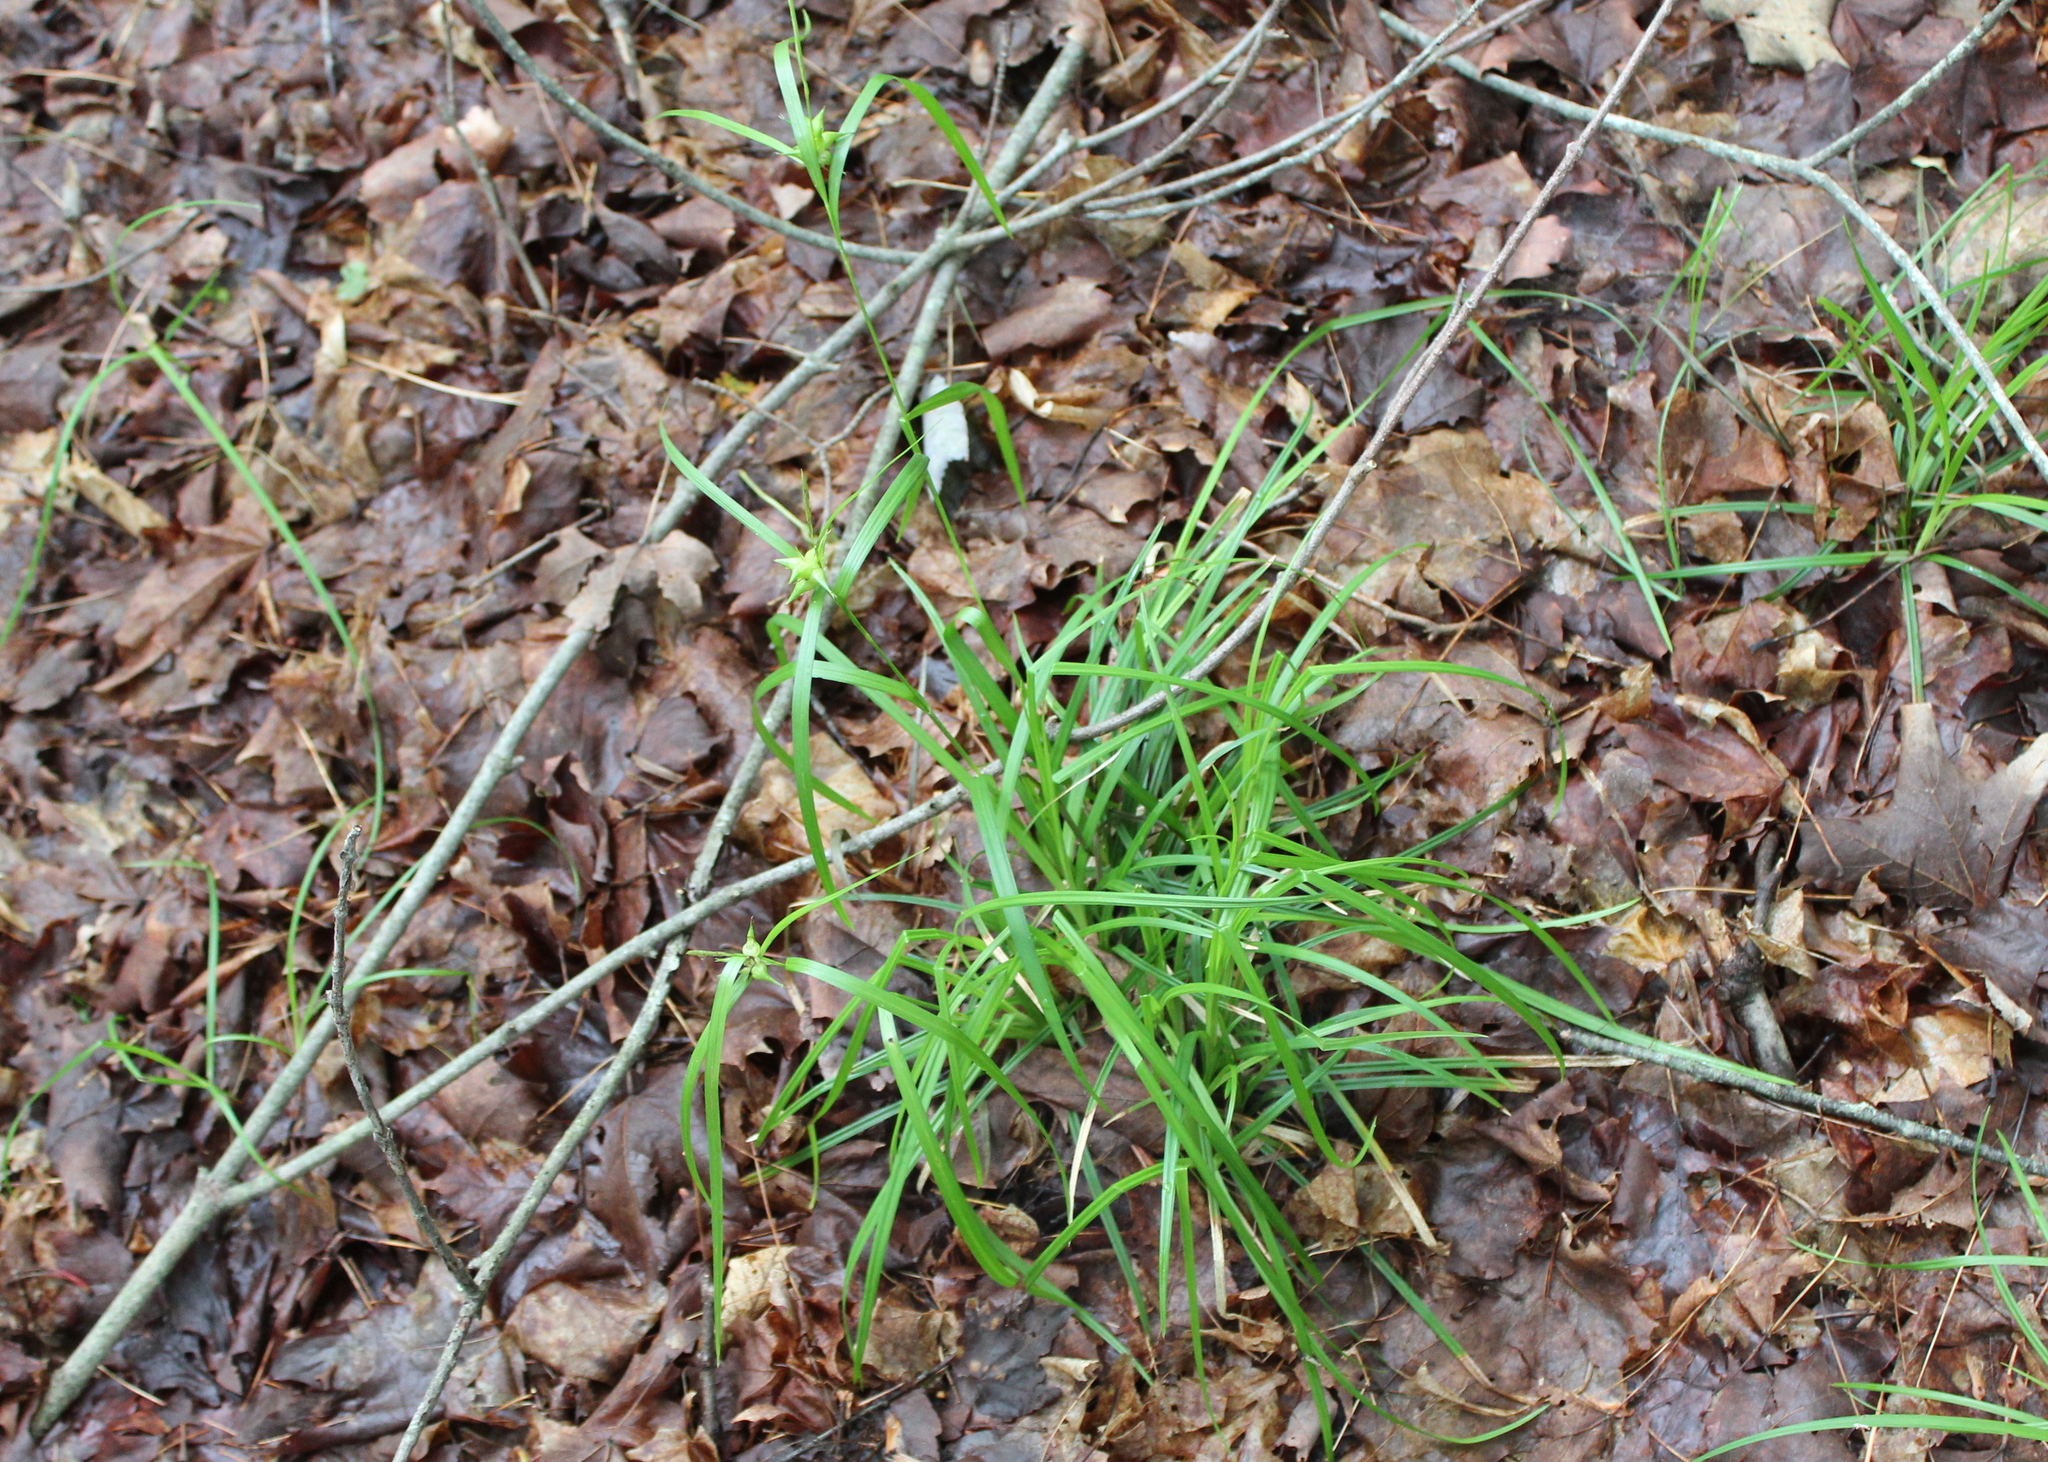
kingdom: Plantae
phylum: Tracheophyta
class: Liliopsida
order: Poales
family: Cyperaceae
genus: Carex
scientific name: Carex intumescens
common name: Greater bladder sedge
